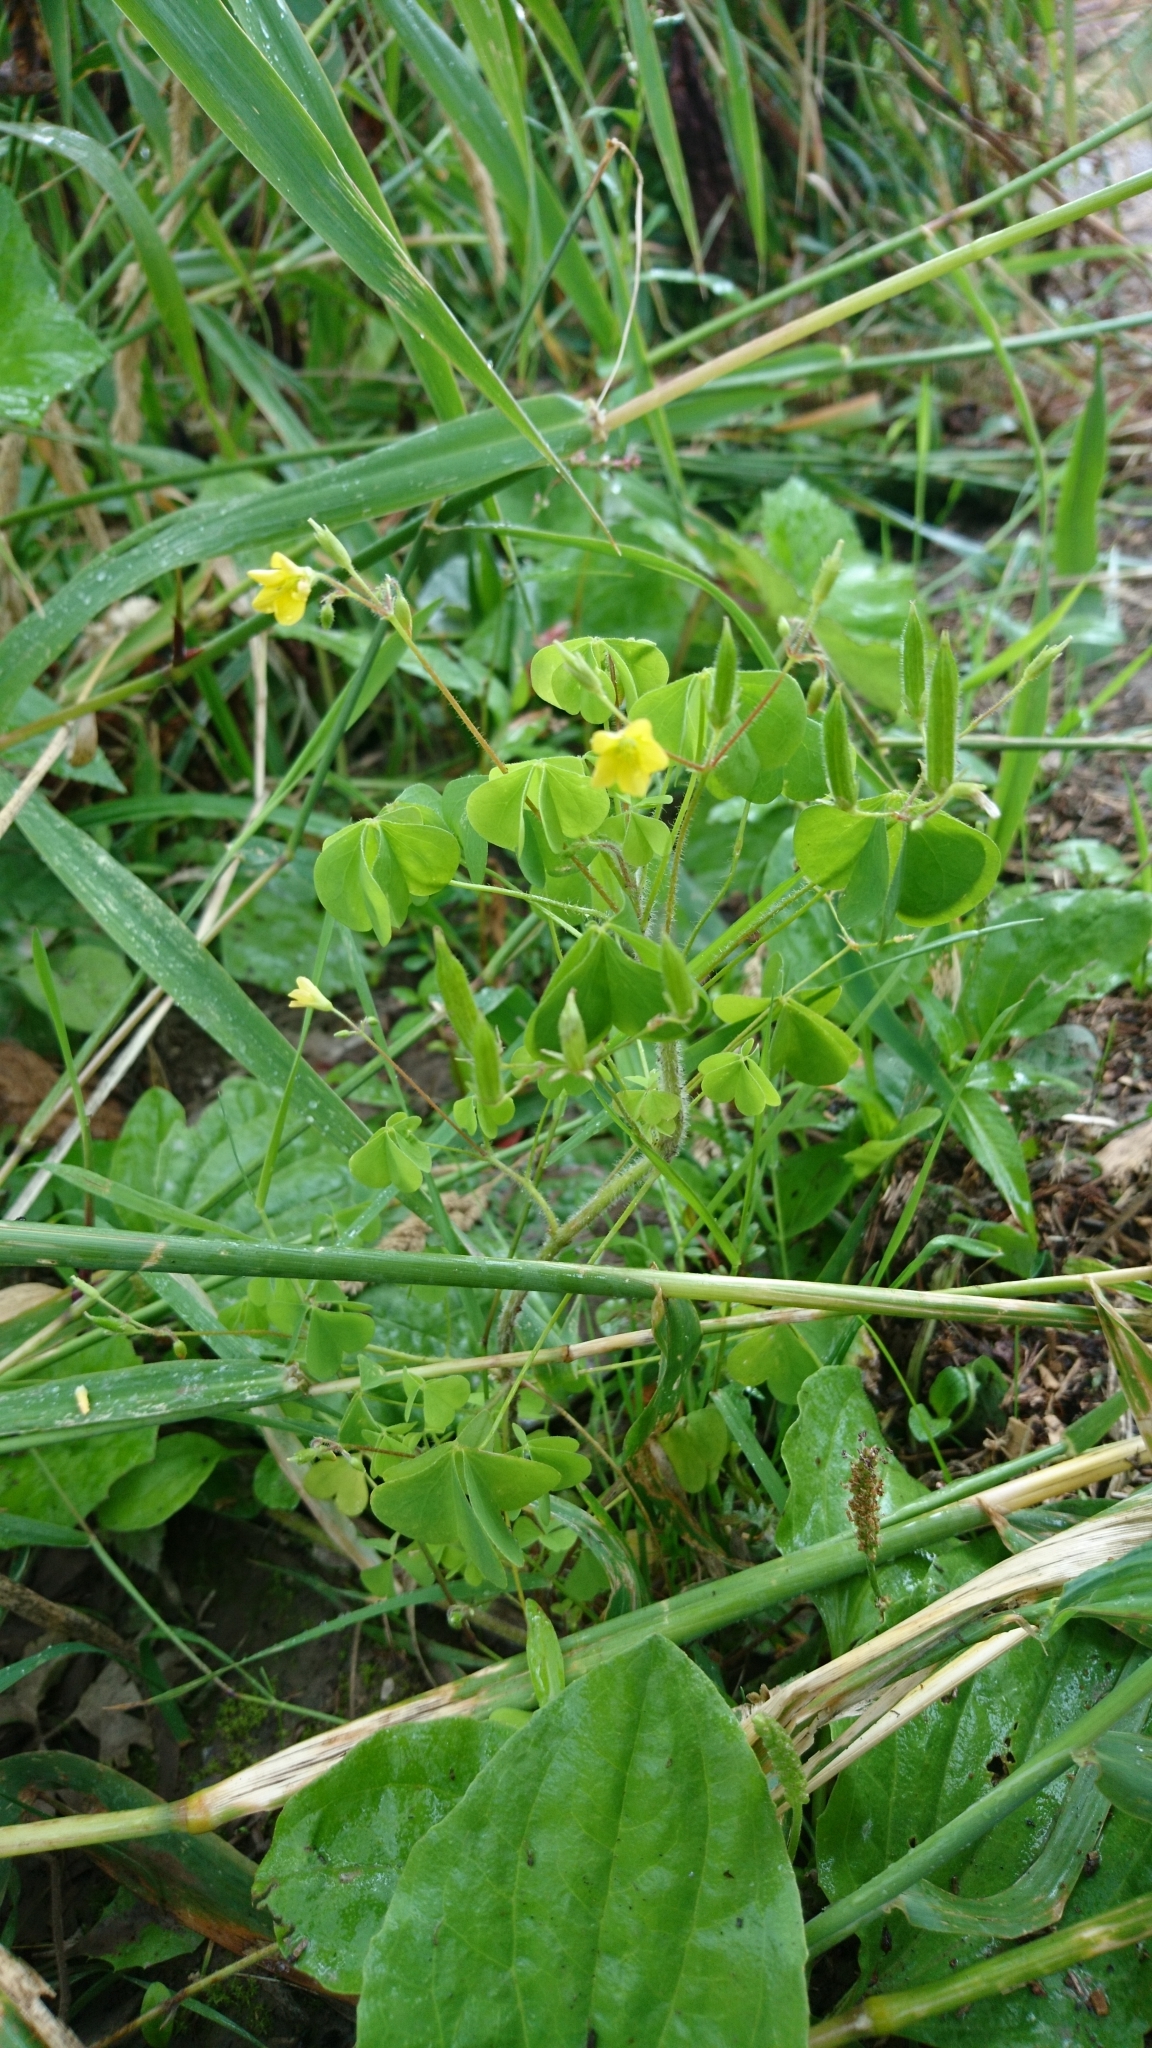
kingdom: Plantae
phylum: Tracheophyta
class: Magnoliopsida
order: Oxalidales
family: Oxalidaceae
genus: Oxalis
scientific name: Oxalis stricta
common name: Upright yellow-sorrel
